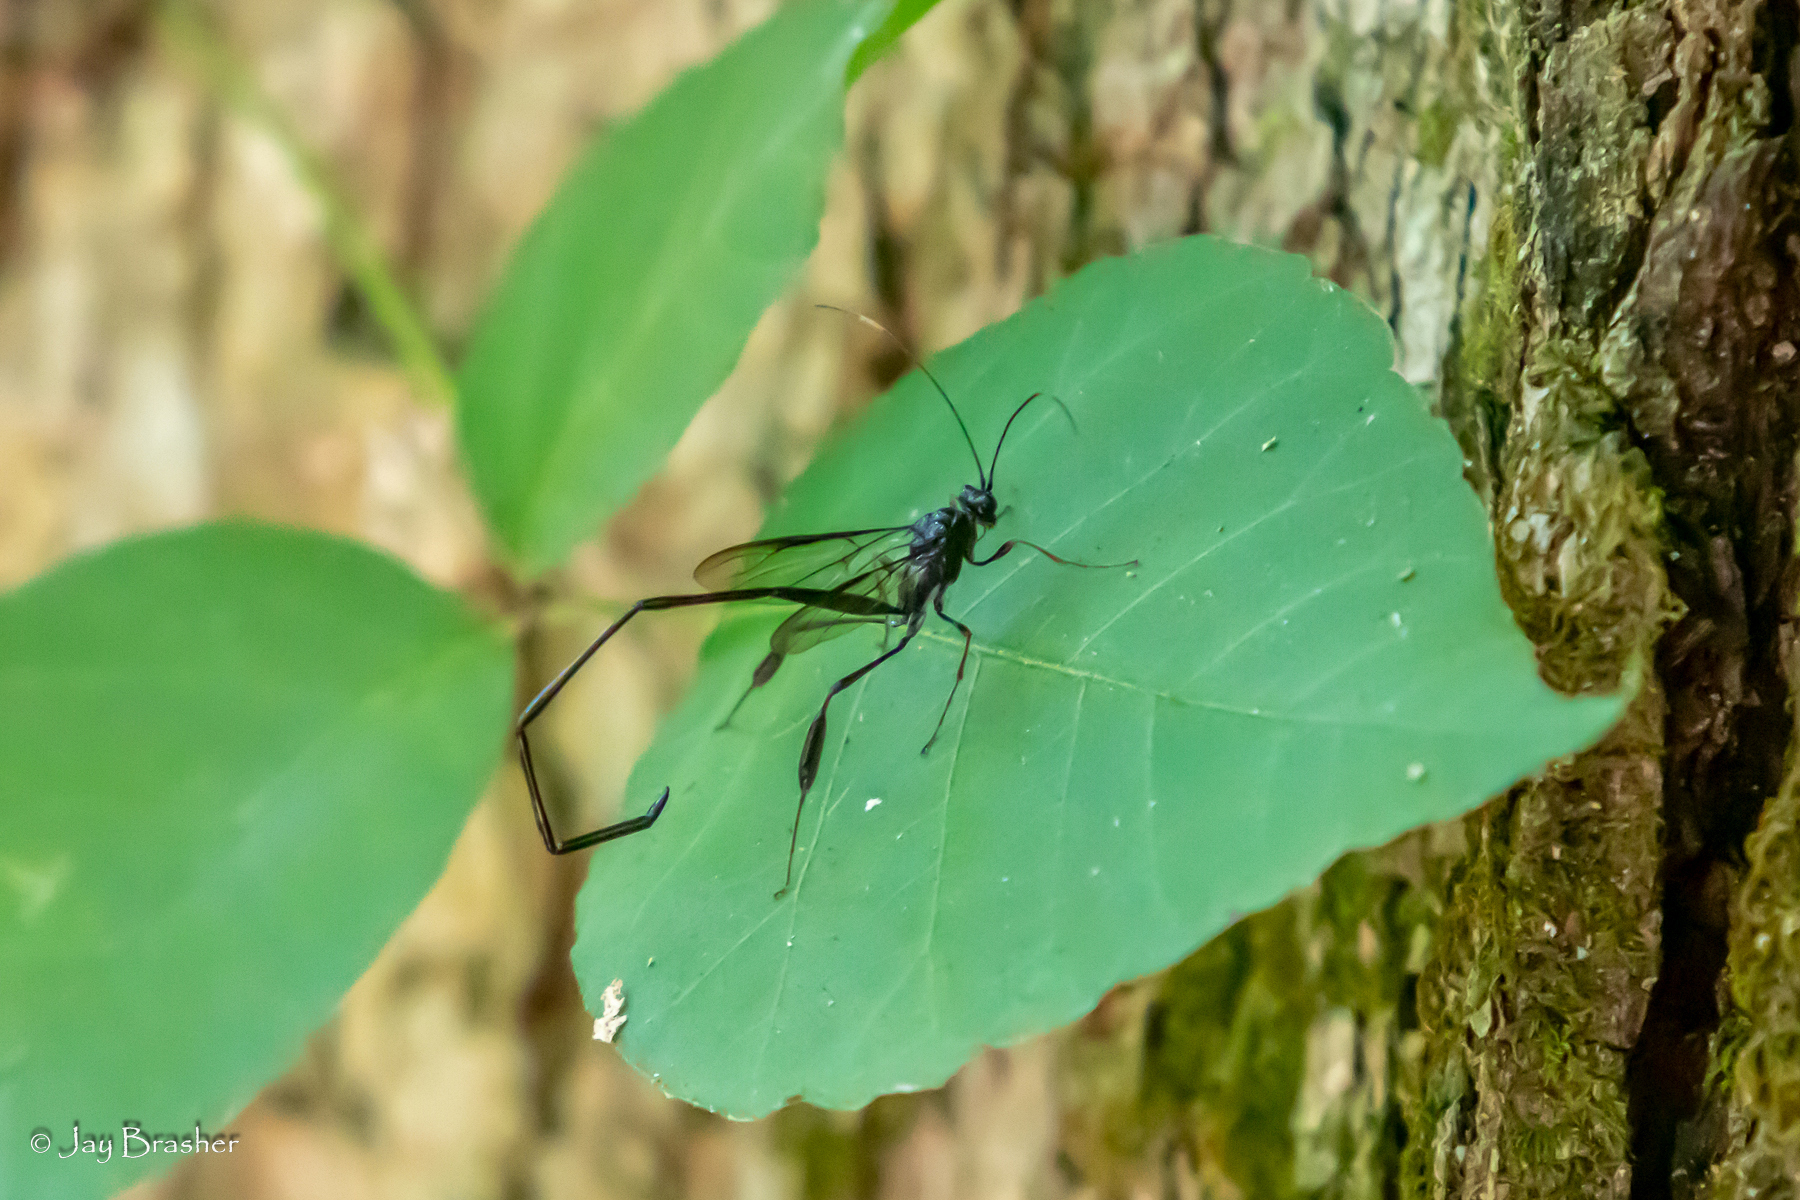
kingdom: Animalia
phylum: Arthropoda
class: Insecta
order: Hymenoptera
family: Pelecinidae
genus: Pelecinus
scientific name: Pelecinus polyturator
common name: American pelecinid wasp
